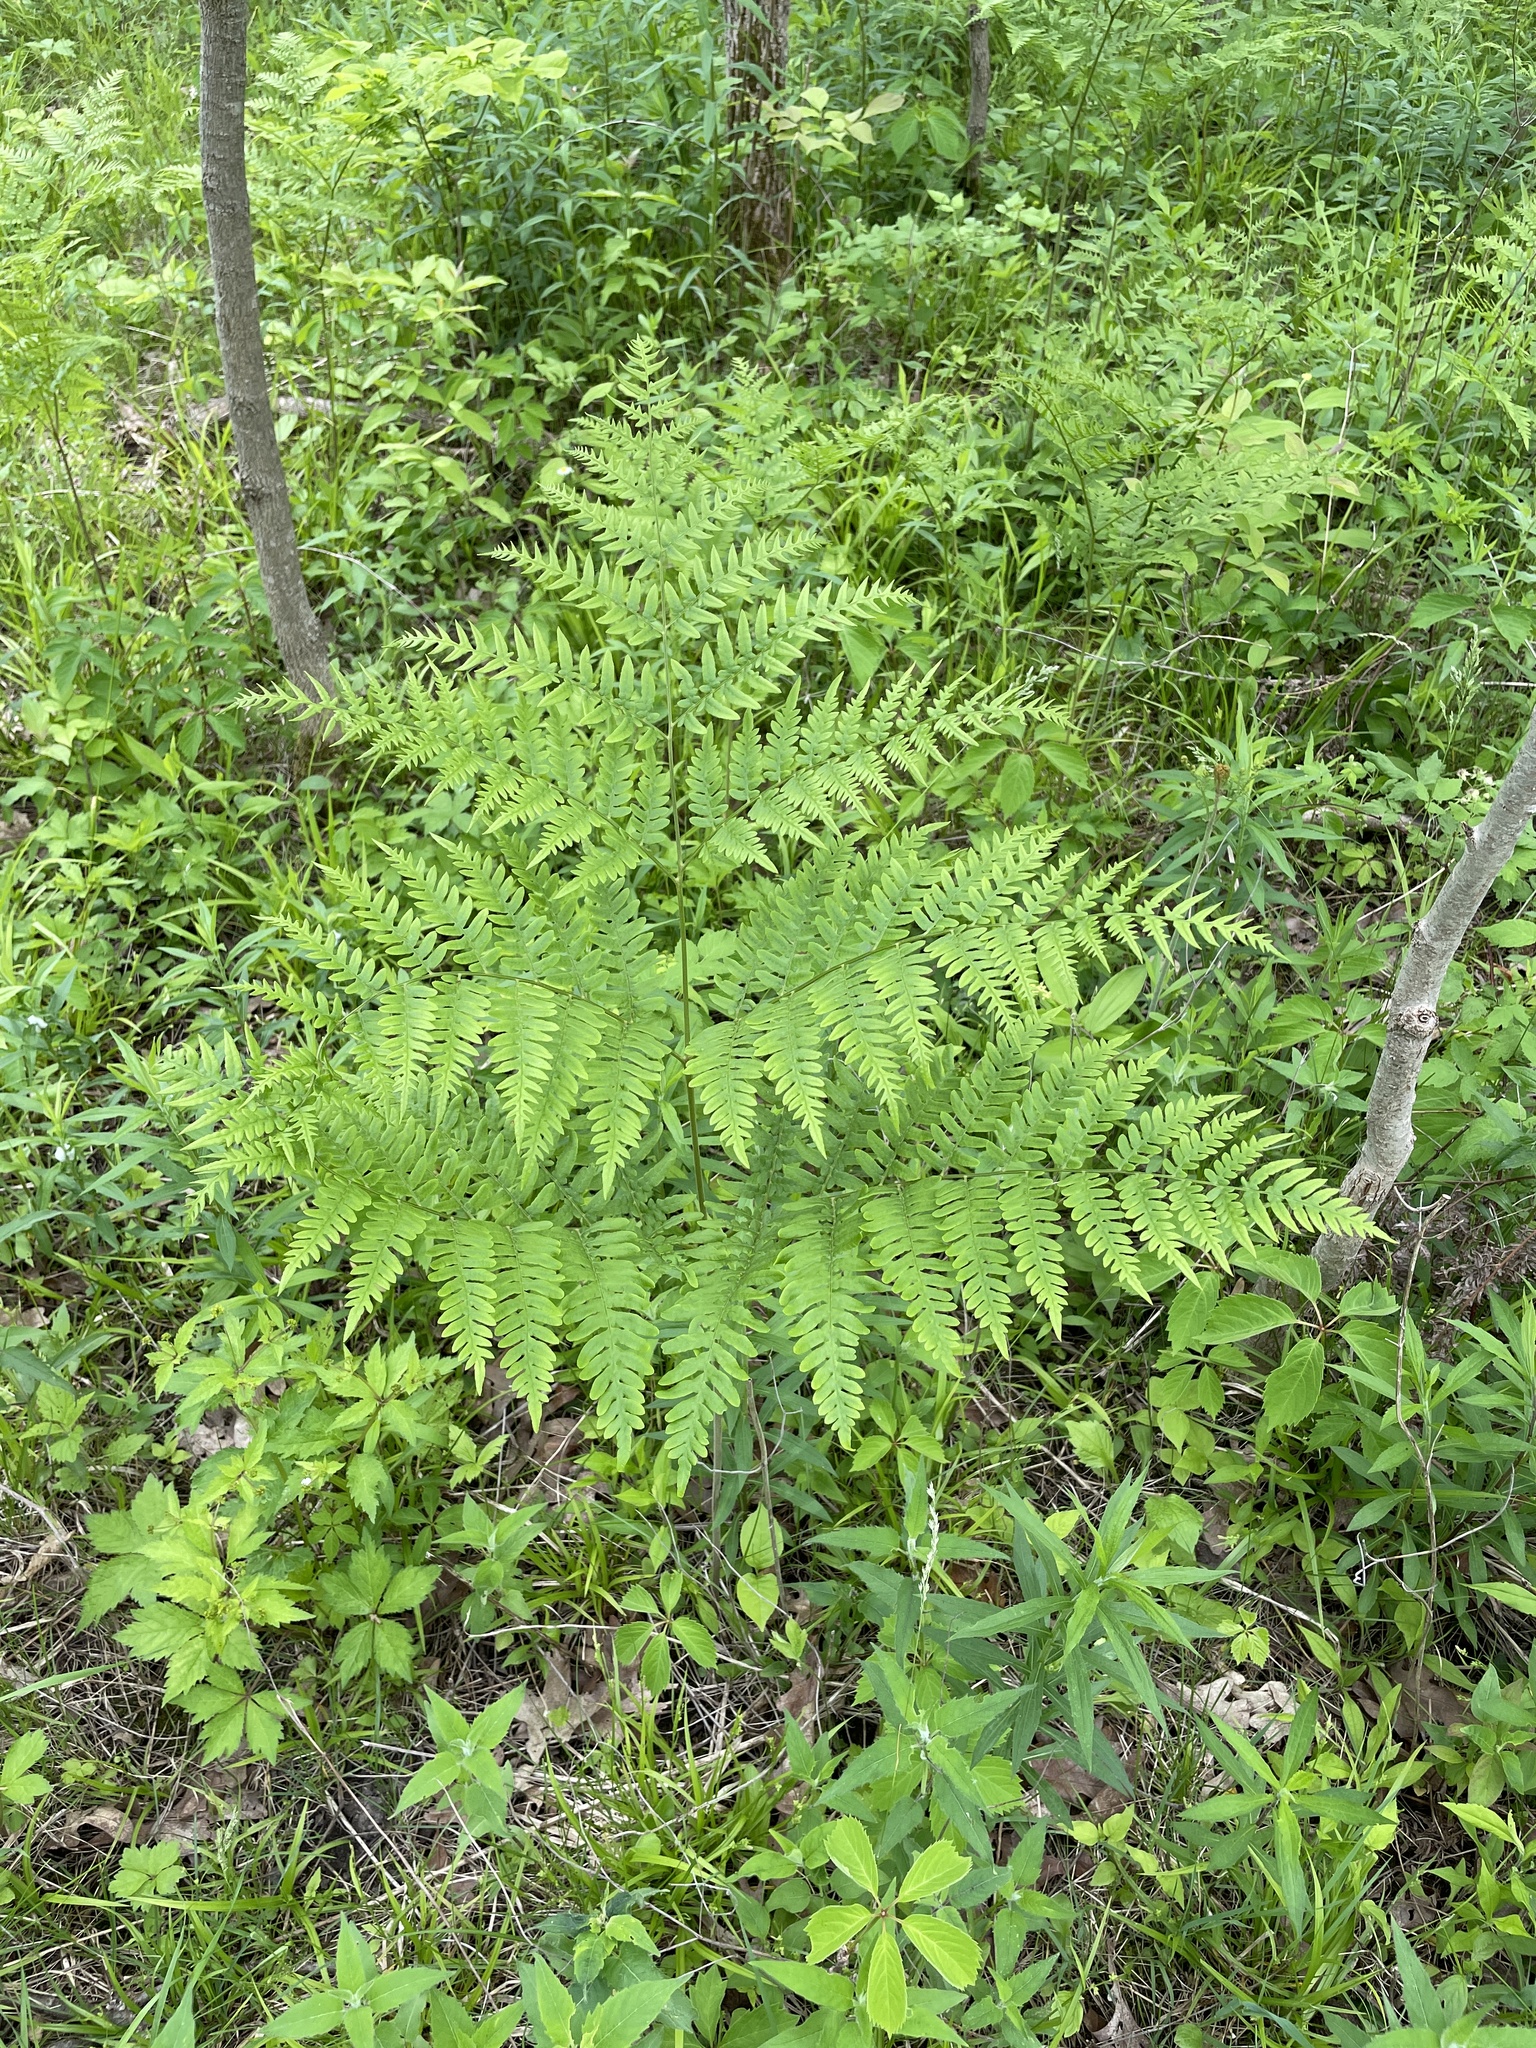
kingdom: Plantae
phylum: Tracheophyta
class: Polypodiopsida
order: Polypodiales
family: Dennstaedtiaceae
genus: Pteridium
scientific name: Pteridium aquilinum
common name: Bracken
